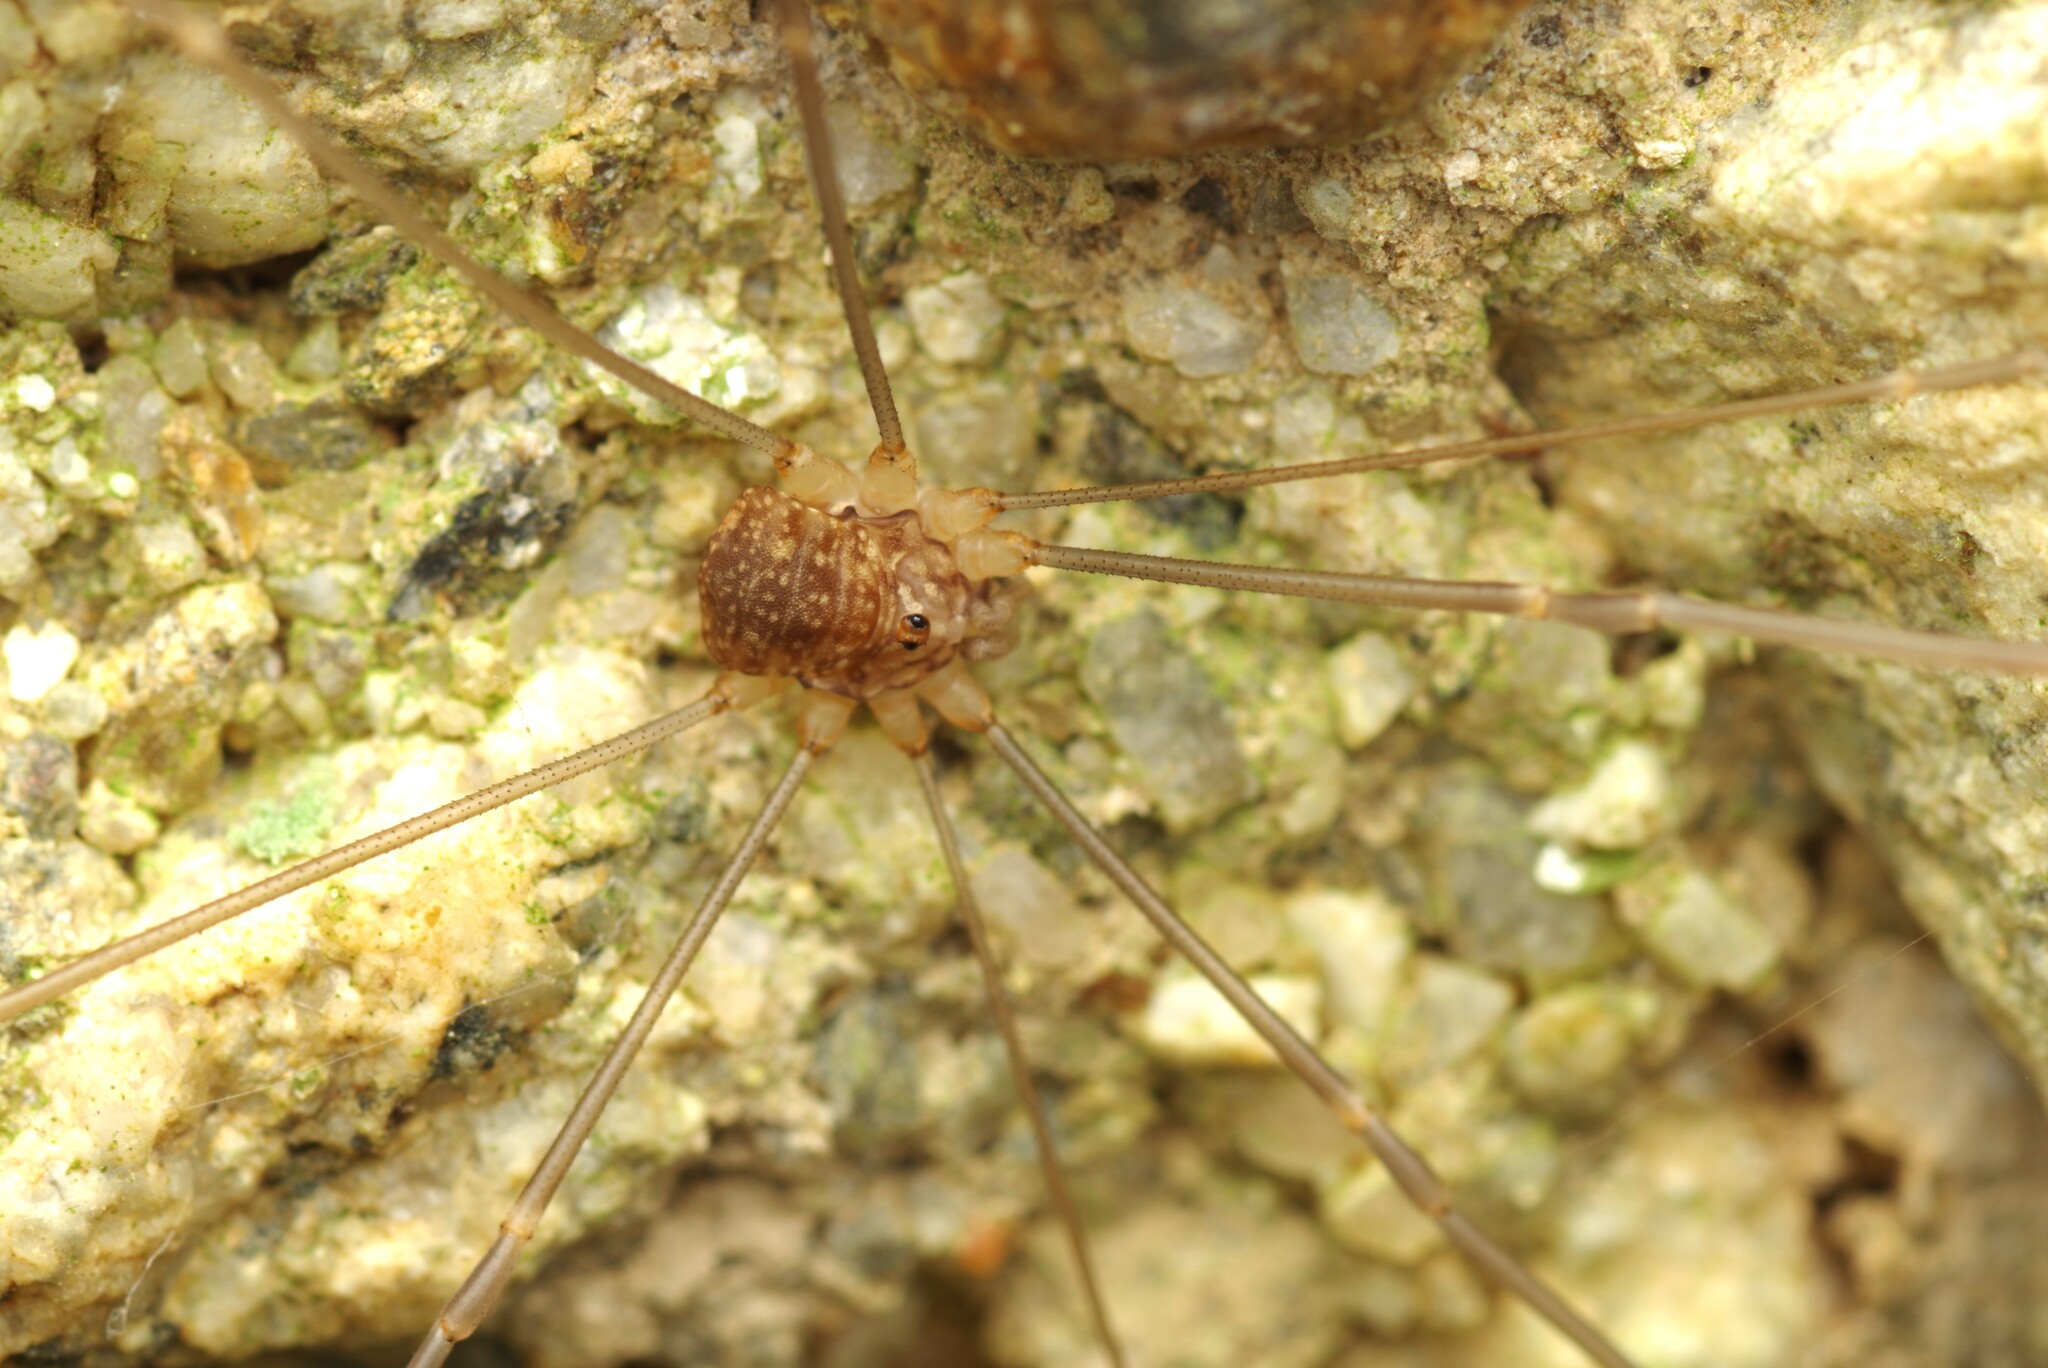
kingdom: Animalia
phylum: Arthropoda
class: Arachnida
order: Opiliones
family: Sclerosomatidae
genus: Nelima
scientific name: Nelima gothica
